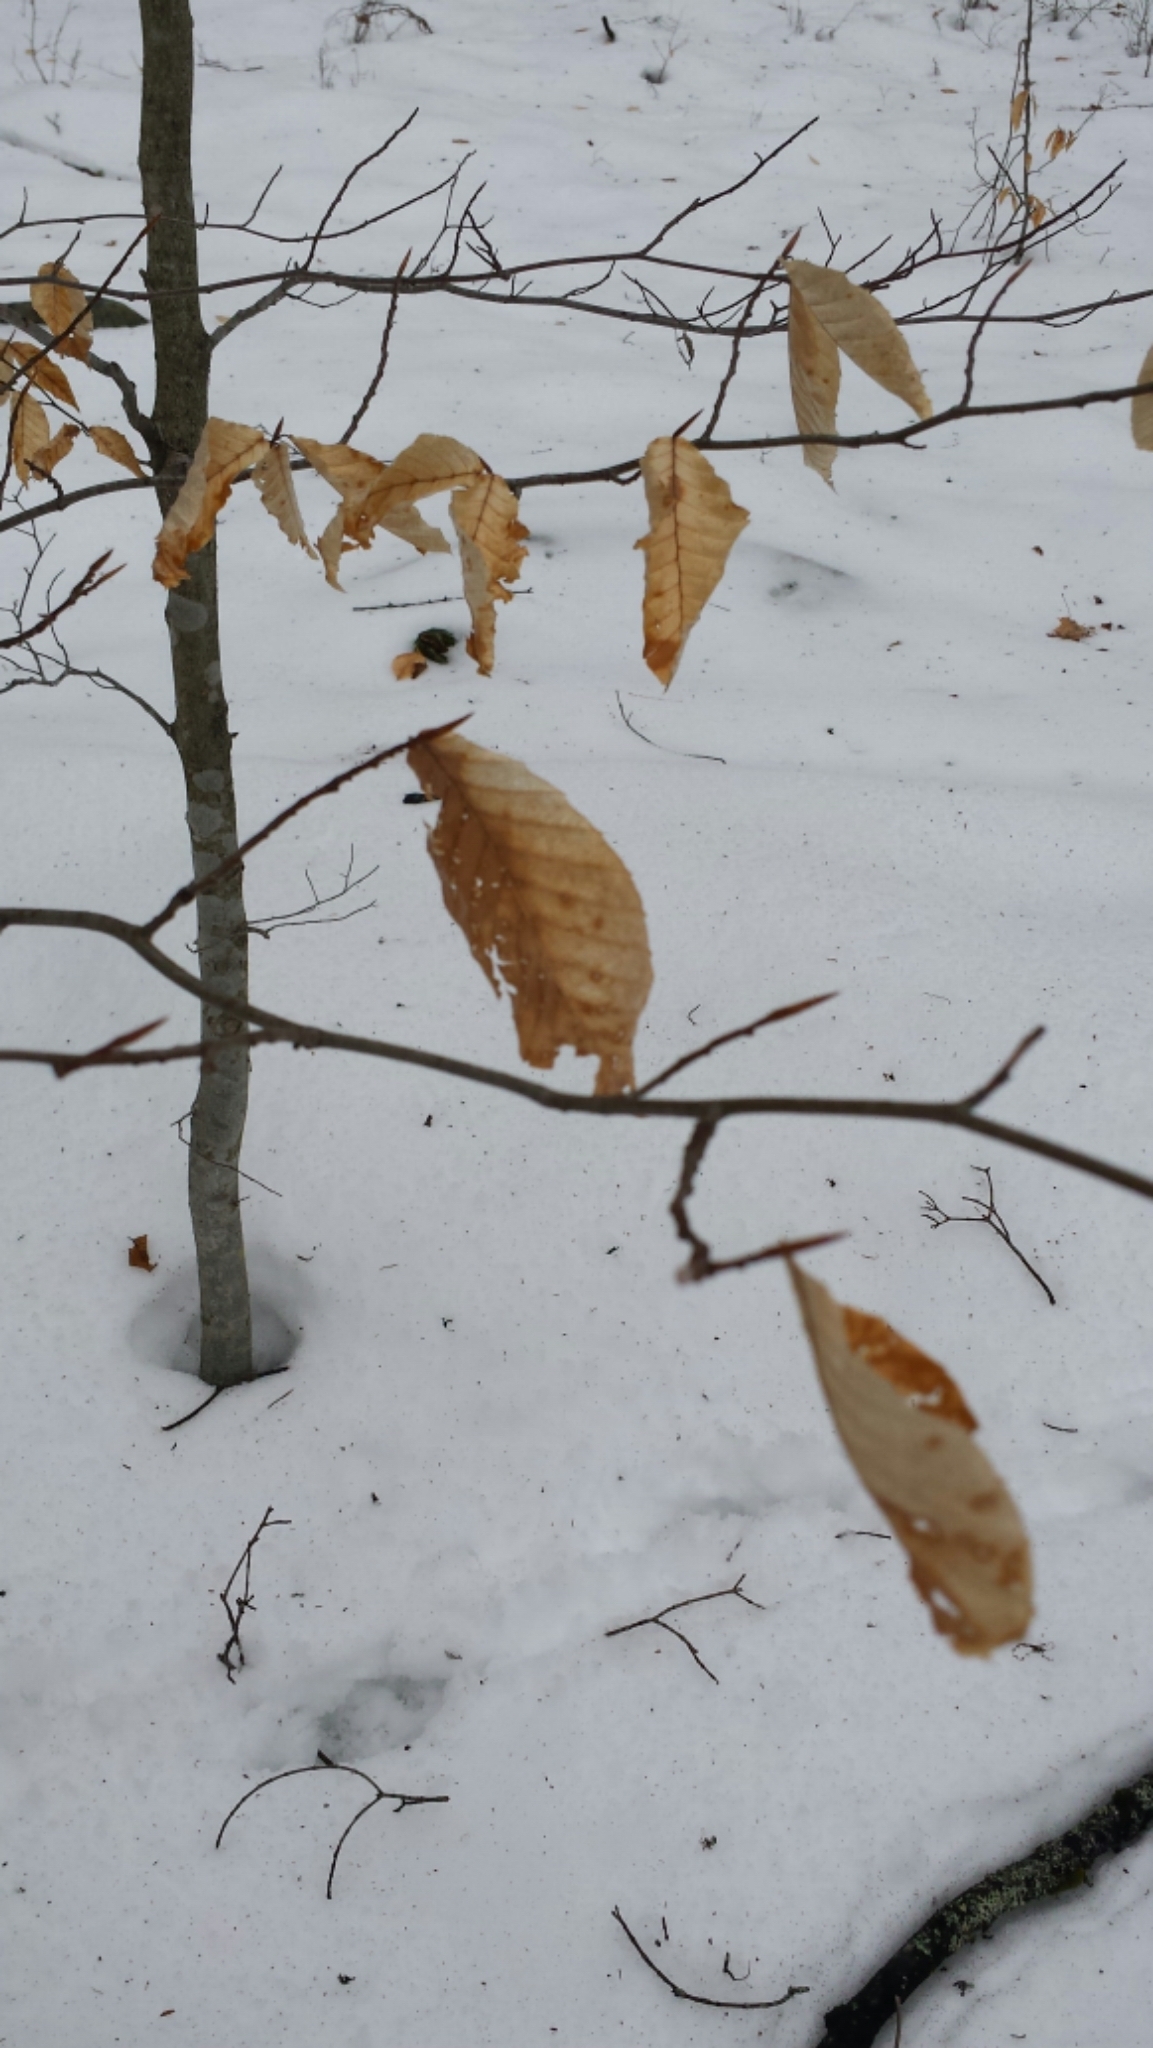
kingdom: Plantae
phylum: Tracheophyta
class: Magnoliopsida
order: Fagales
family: Fagaceae
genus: Fagus
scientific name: Fagus grandifolia
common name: American beech
